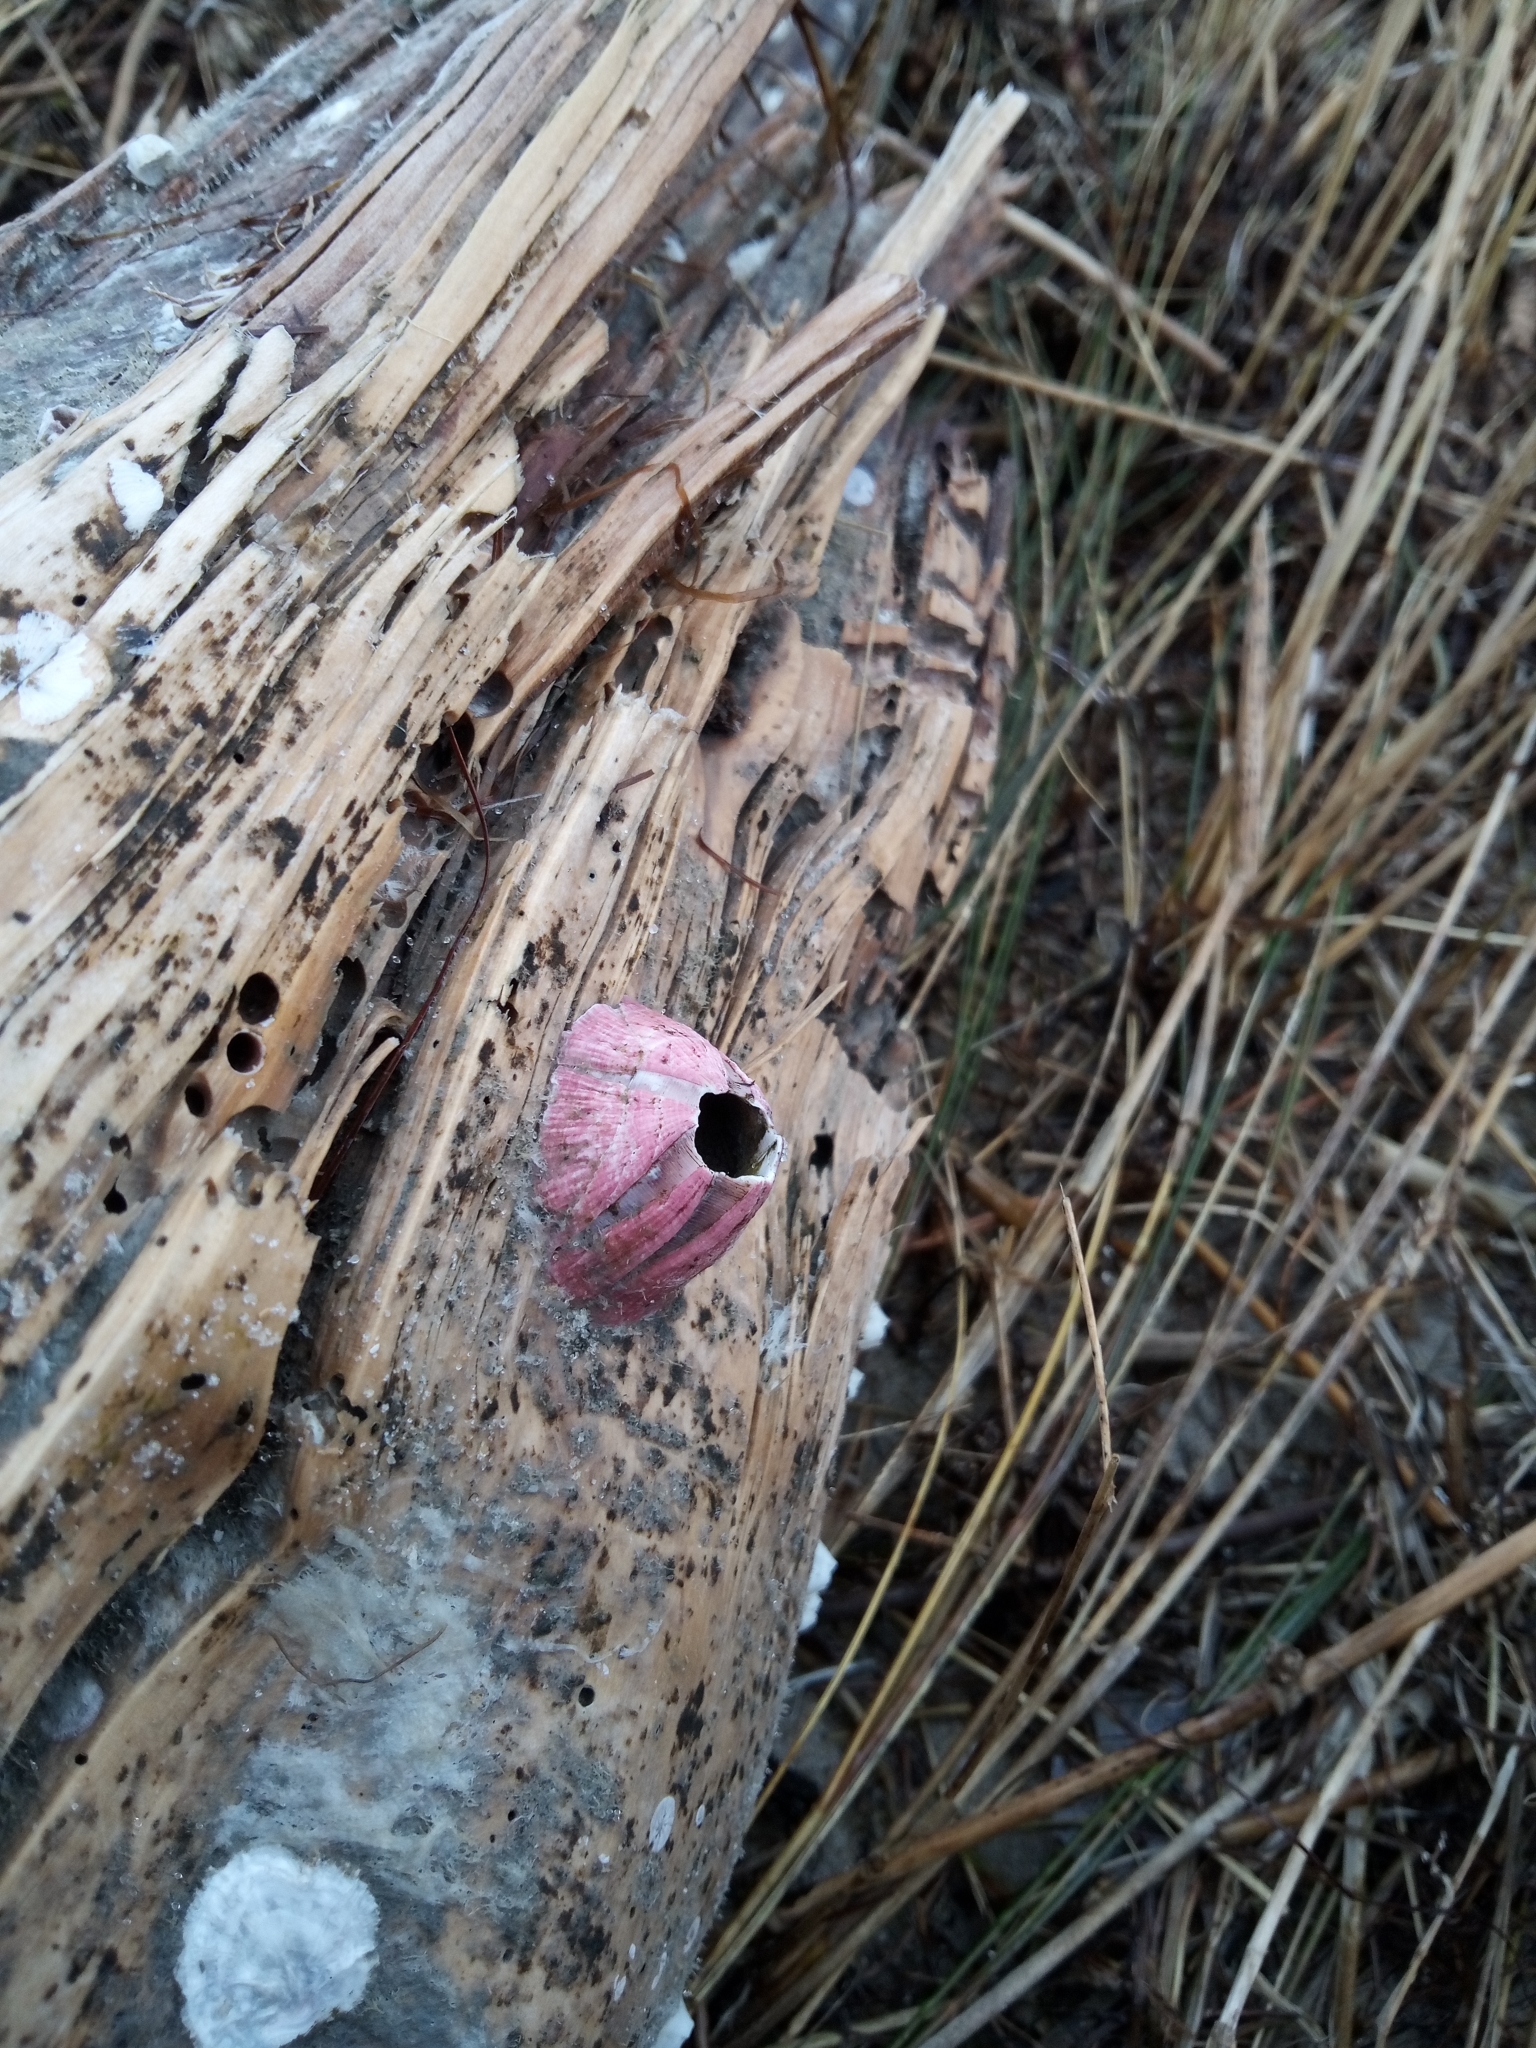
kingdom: Animalia
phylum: Arthropoda
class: Maxillopoda
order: Sessilia
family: Balanidae
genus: Megabalanus
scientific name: Megabalanus tintinnabulum
